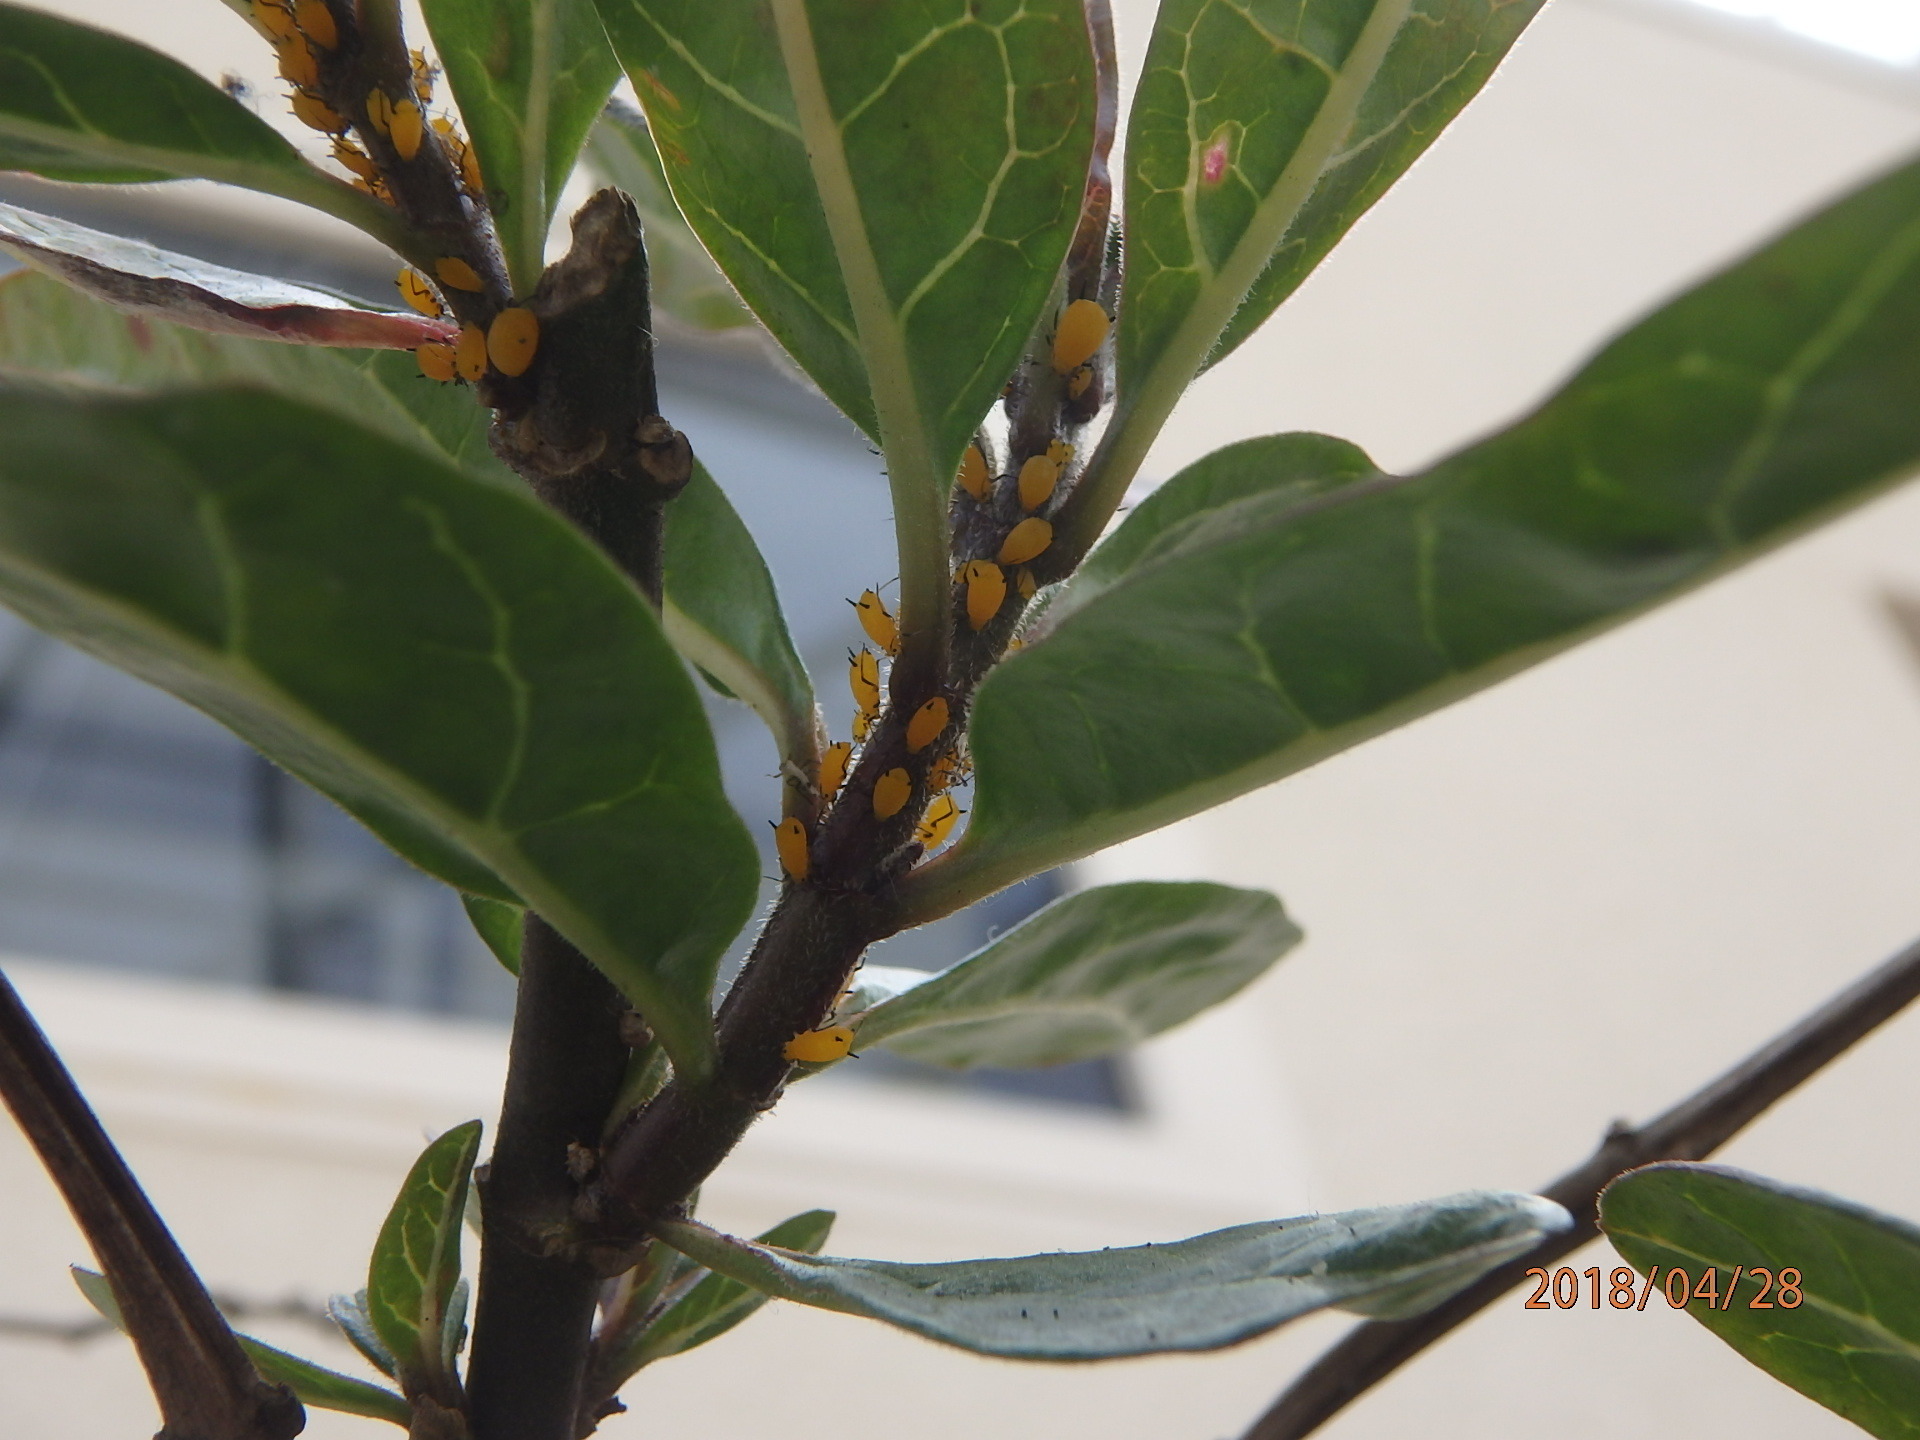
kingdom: Animalia
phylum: Arthropoda
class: Insecta
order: Hemiptera
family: Aphididae
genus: Aphis
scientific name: Aphis nerii
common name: Oleander aphid
